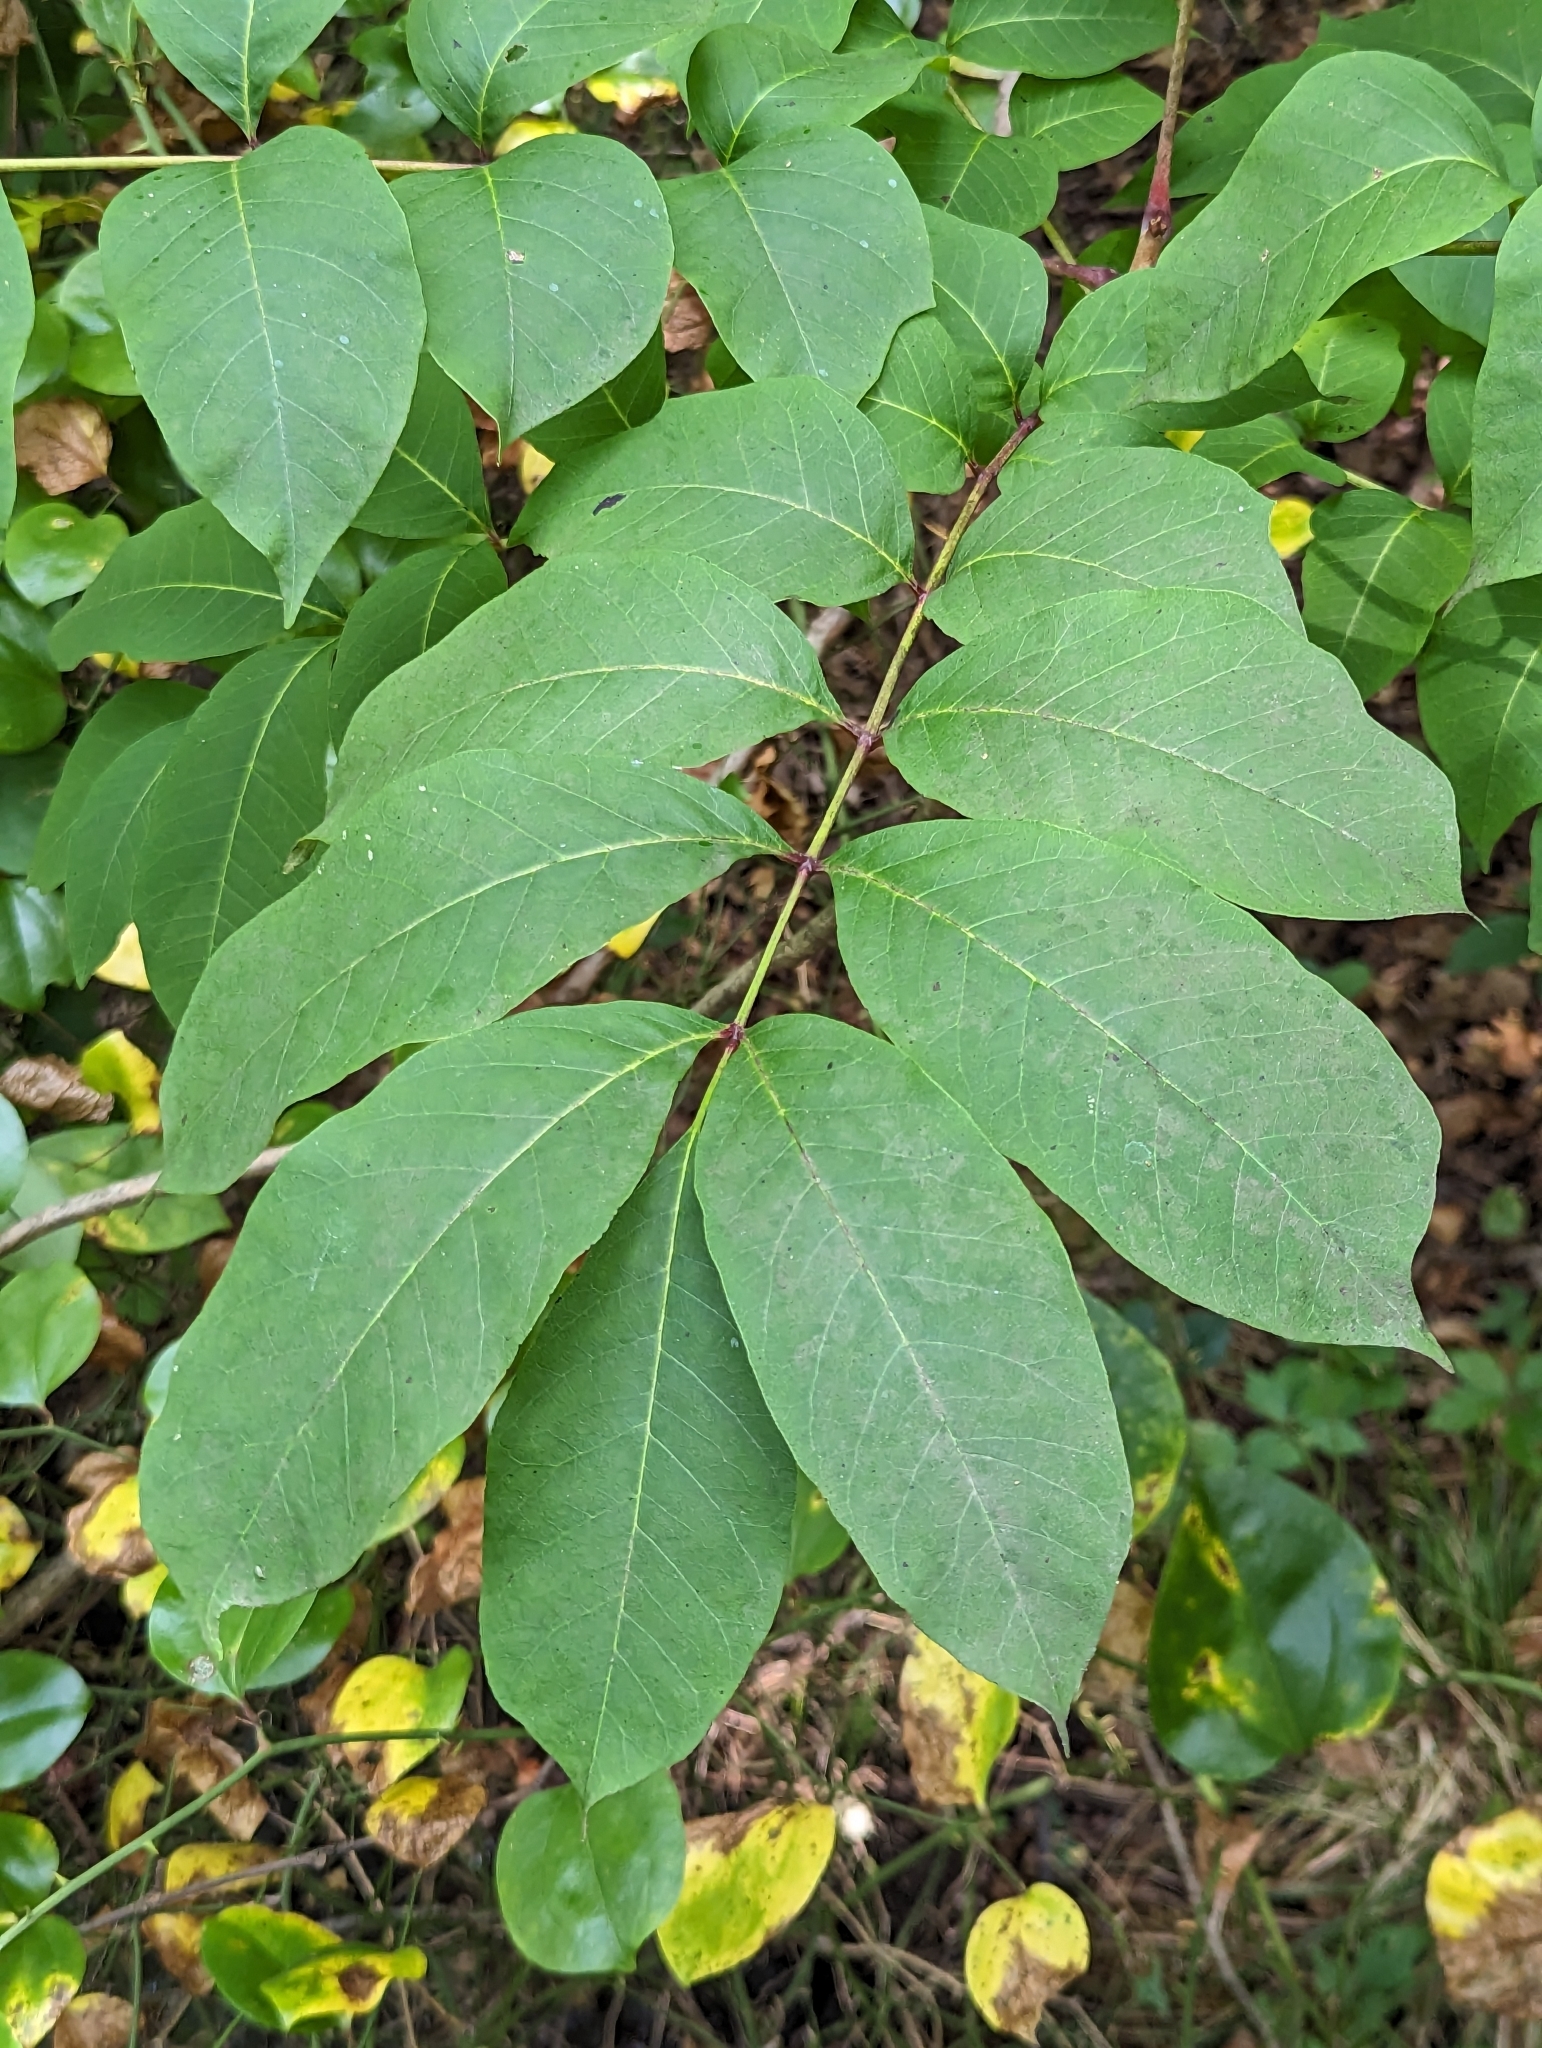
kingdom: Plantae
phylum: Tracheophyta
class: Magnoliopsida
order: Sapindales
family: Anacardiaceae
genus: Toxicodendron
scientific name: Toxicodendron vernix
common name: Poison sumac
